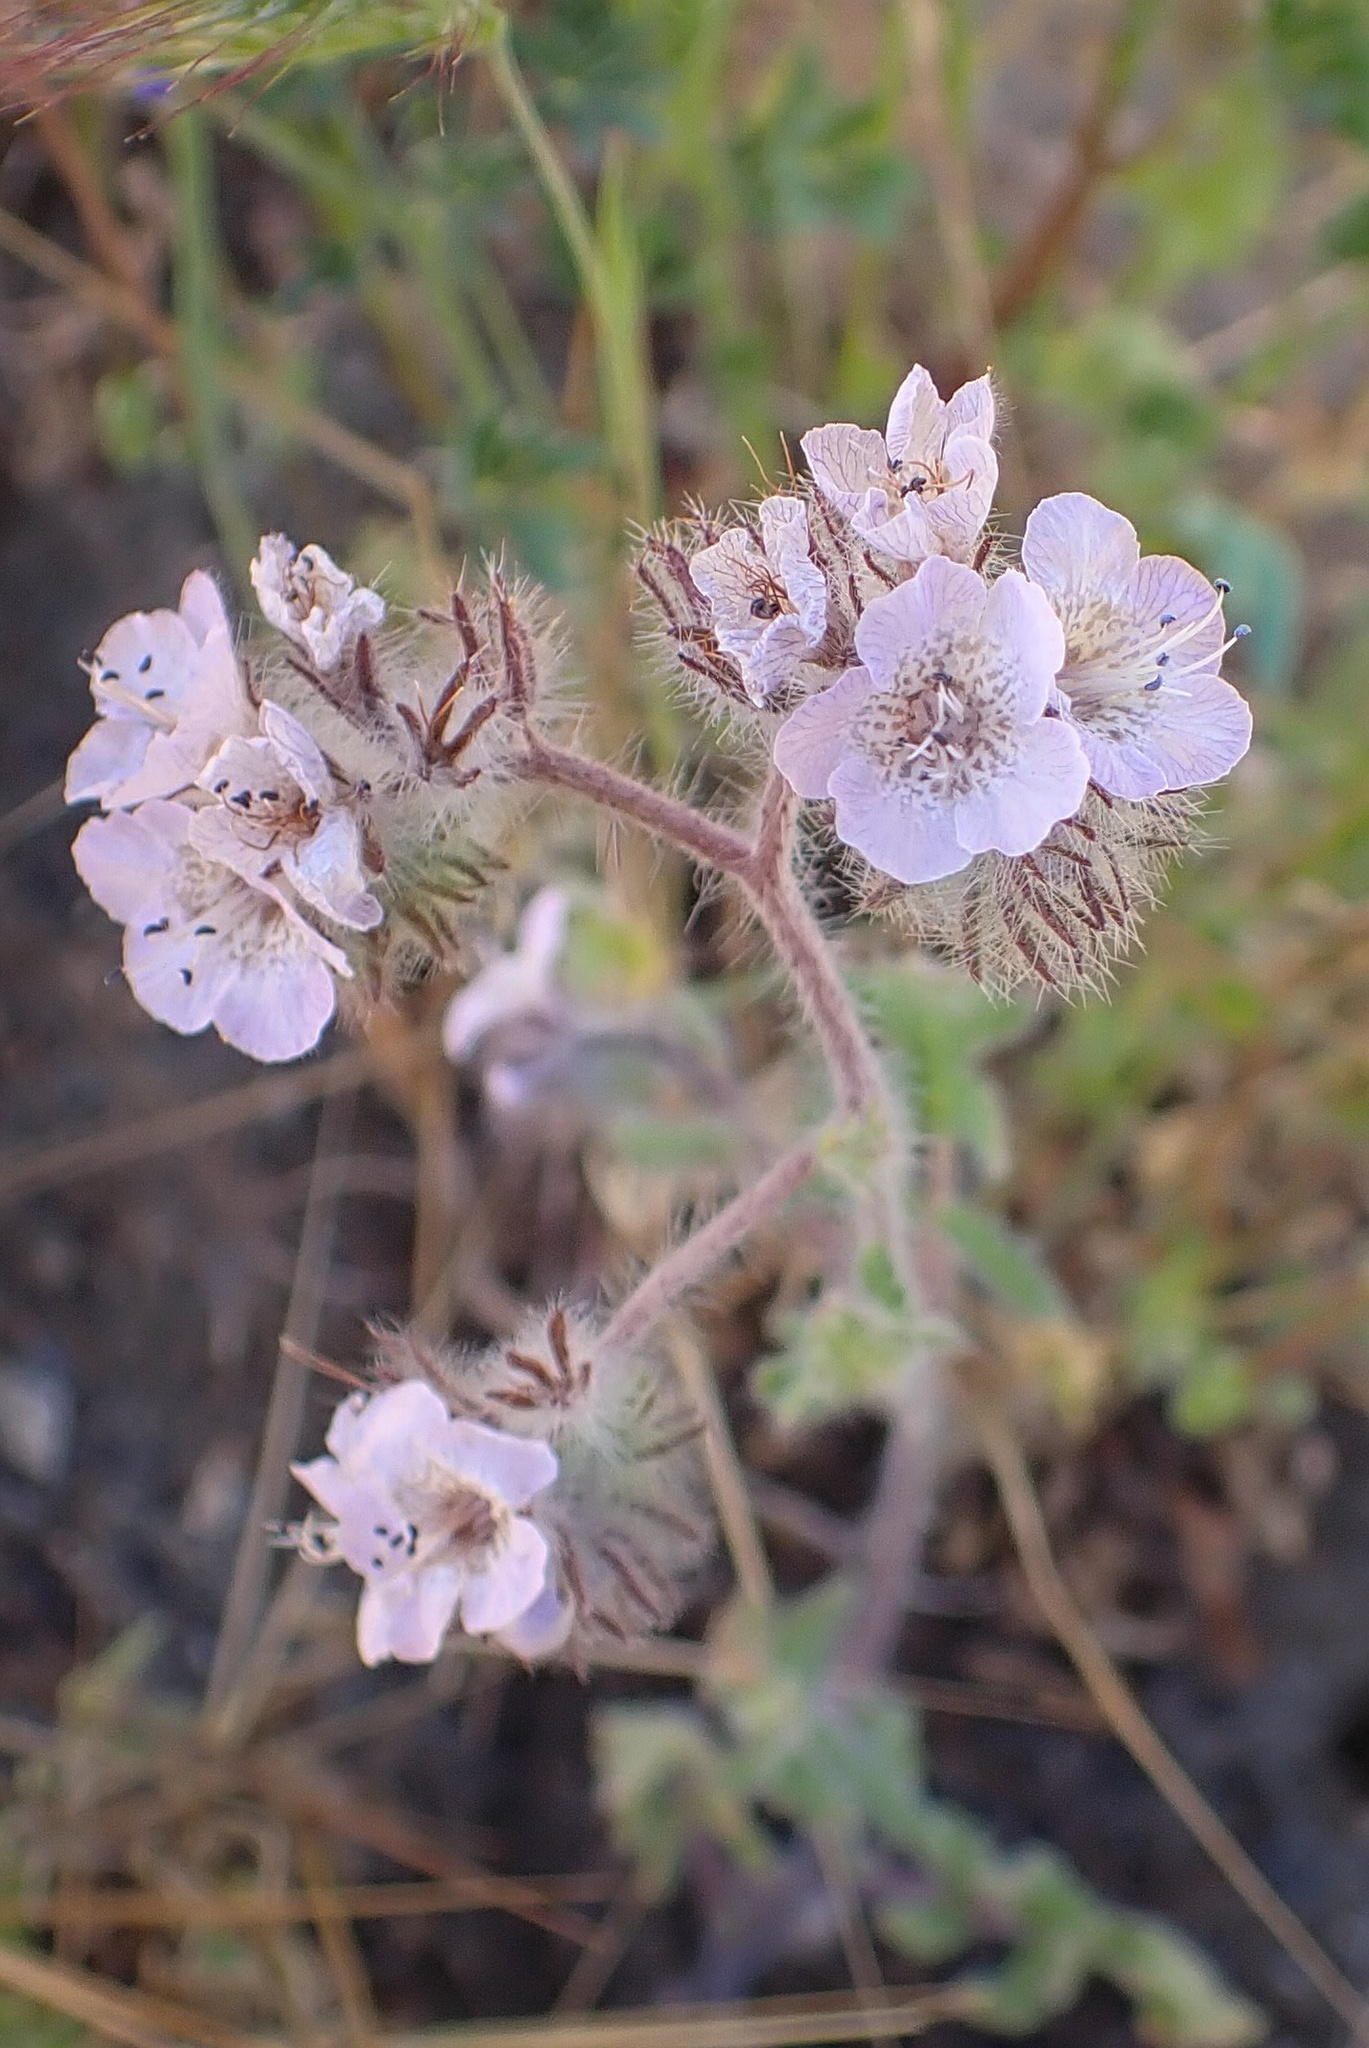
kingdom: Plantae
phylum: Tracheophyta
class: Magnoliopsida
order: Boraginales
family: Hydrophyllaceae
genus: Phacelia
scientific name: Phacelia cicutaria
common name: Caterpillar phacelia
